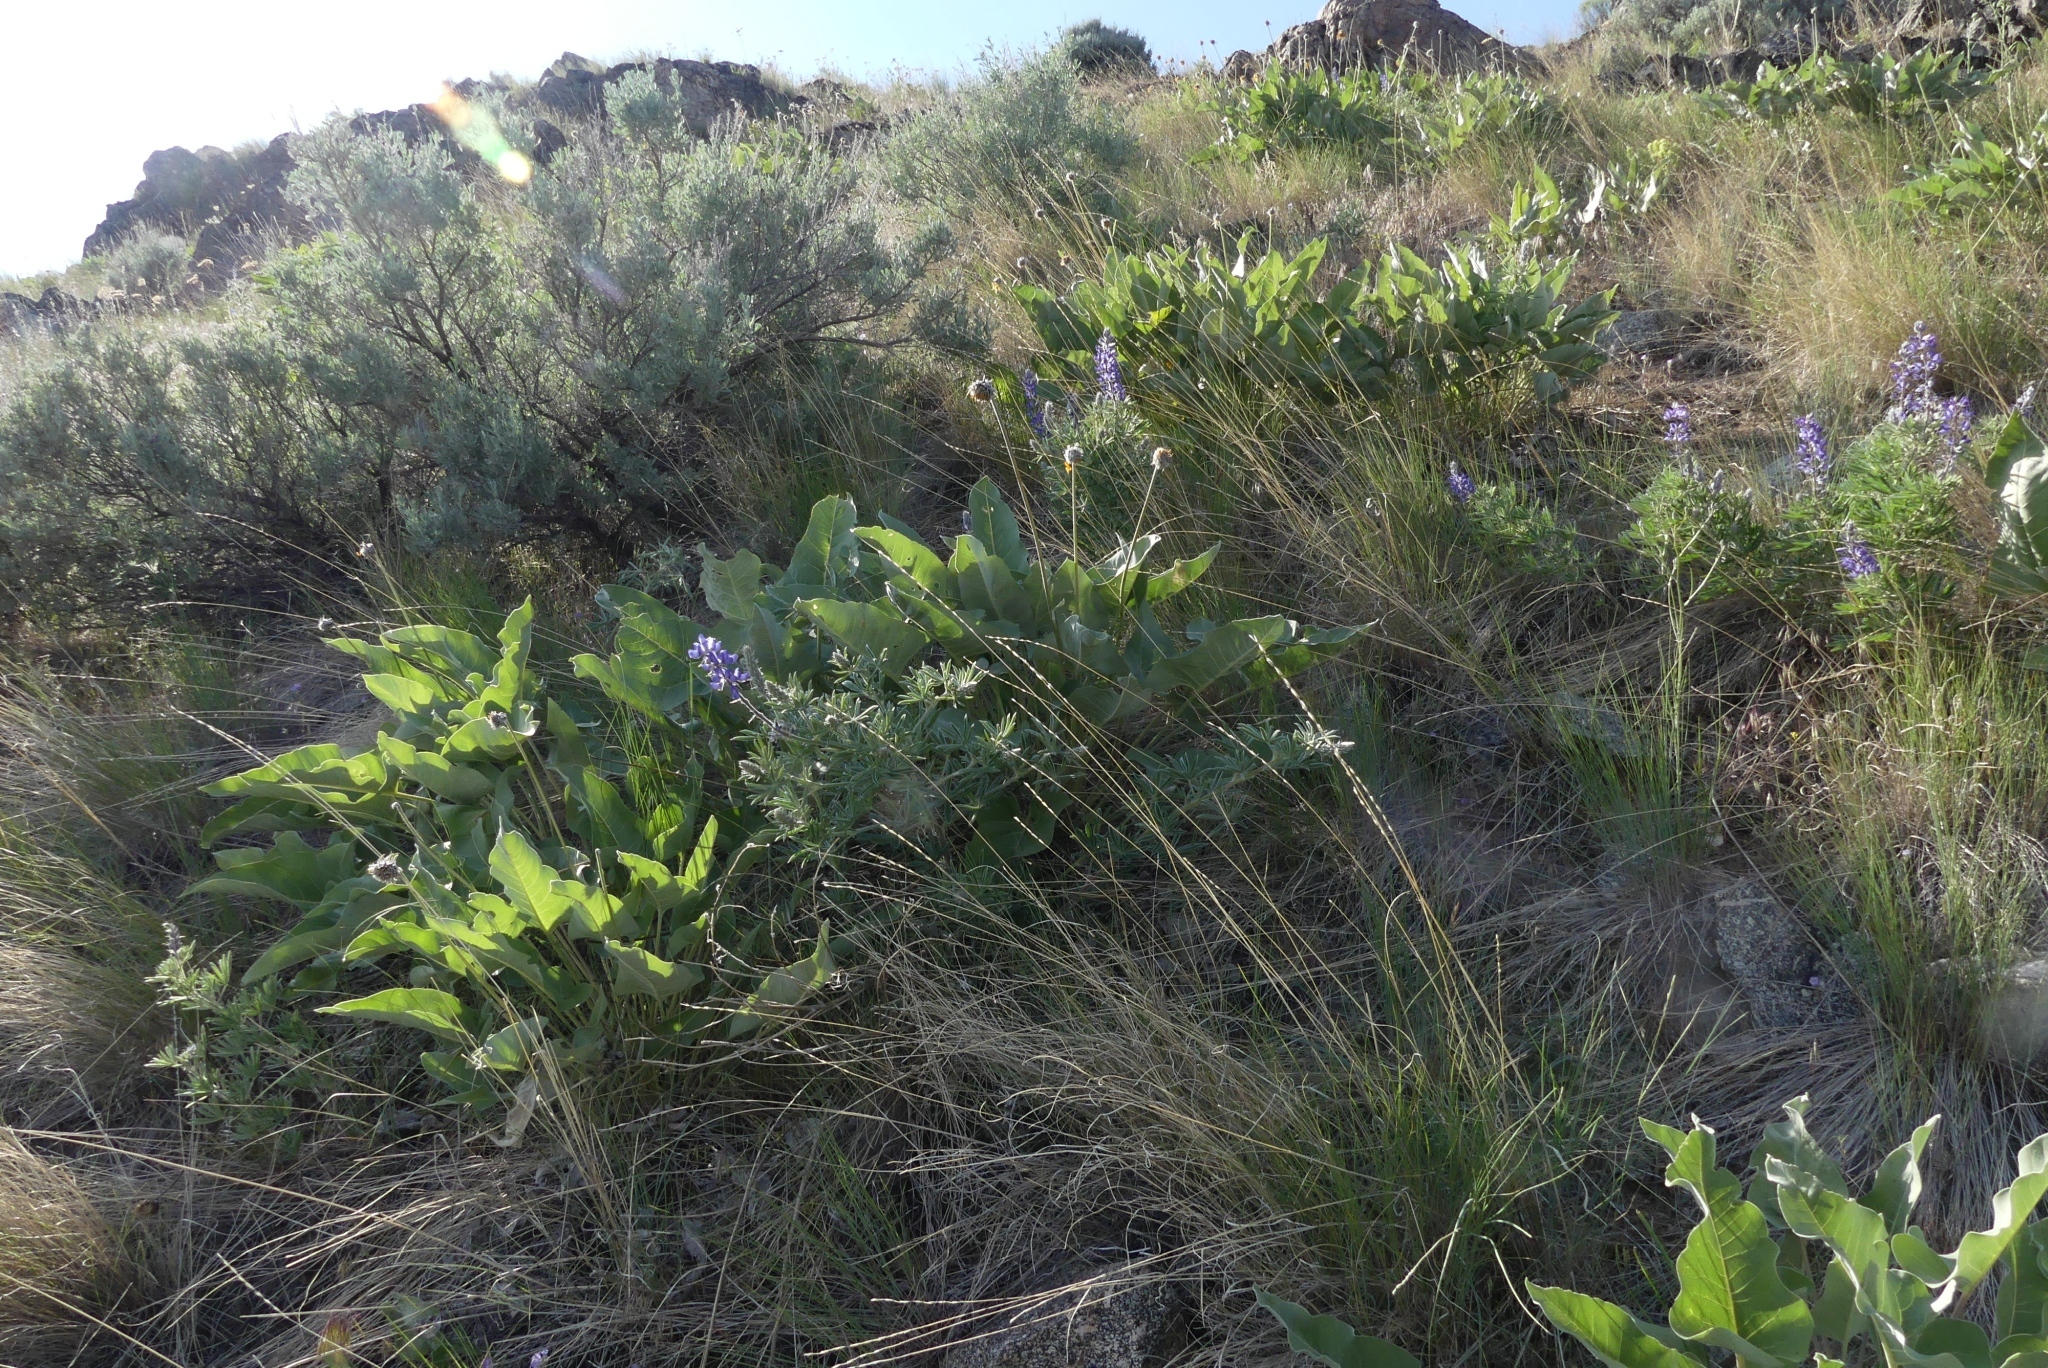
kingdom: Plantae
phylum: Tracheophyta
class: Magnoliopsida
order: Asterales
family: Asteraceae
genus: Wyethia
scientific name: Wyethia sagittata
